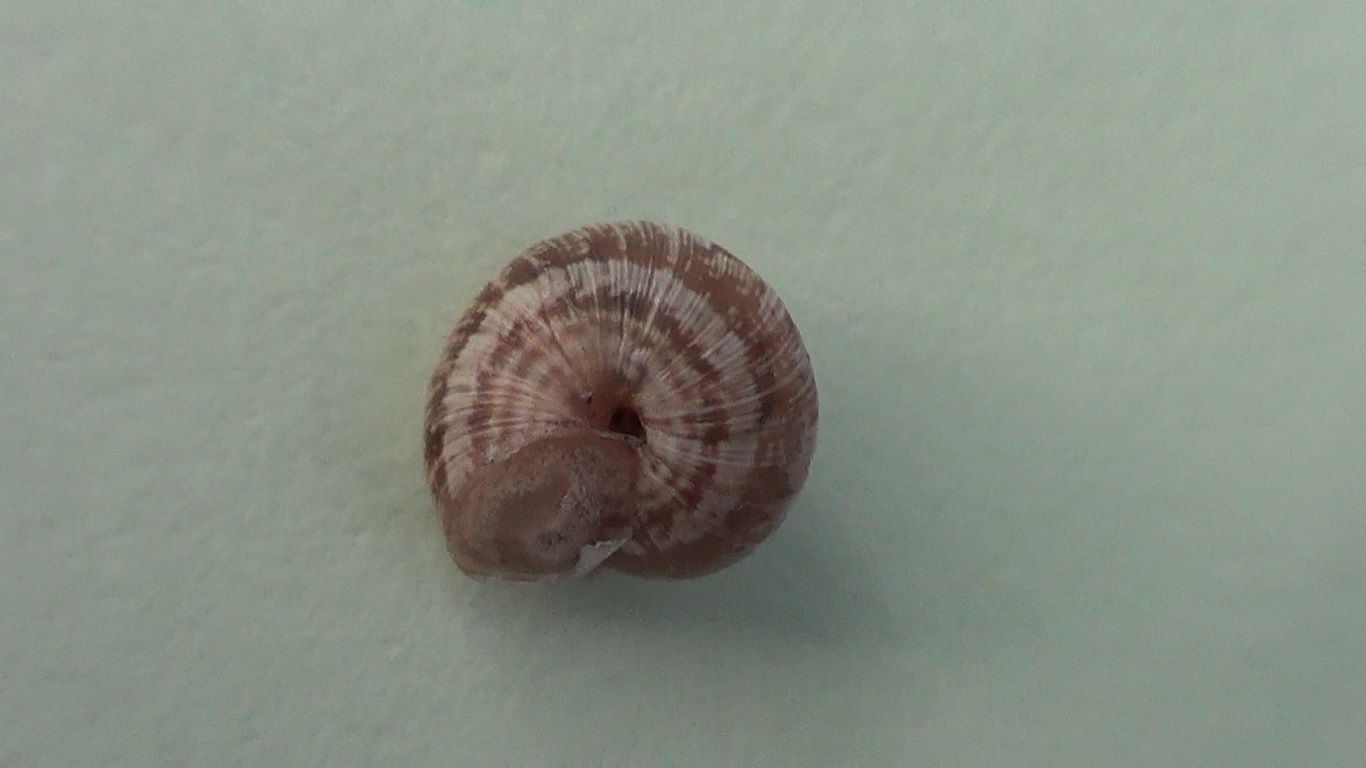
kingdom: Animalia
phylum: Mollusca
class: Gastropoda
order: Stylommatophora
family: Geomitridae
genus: Xerotricha
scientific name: Xerotricha conspurcata
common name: Snail
